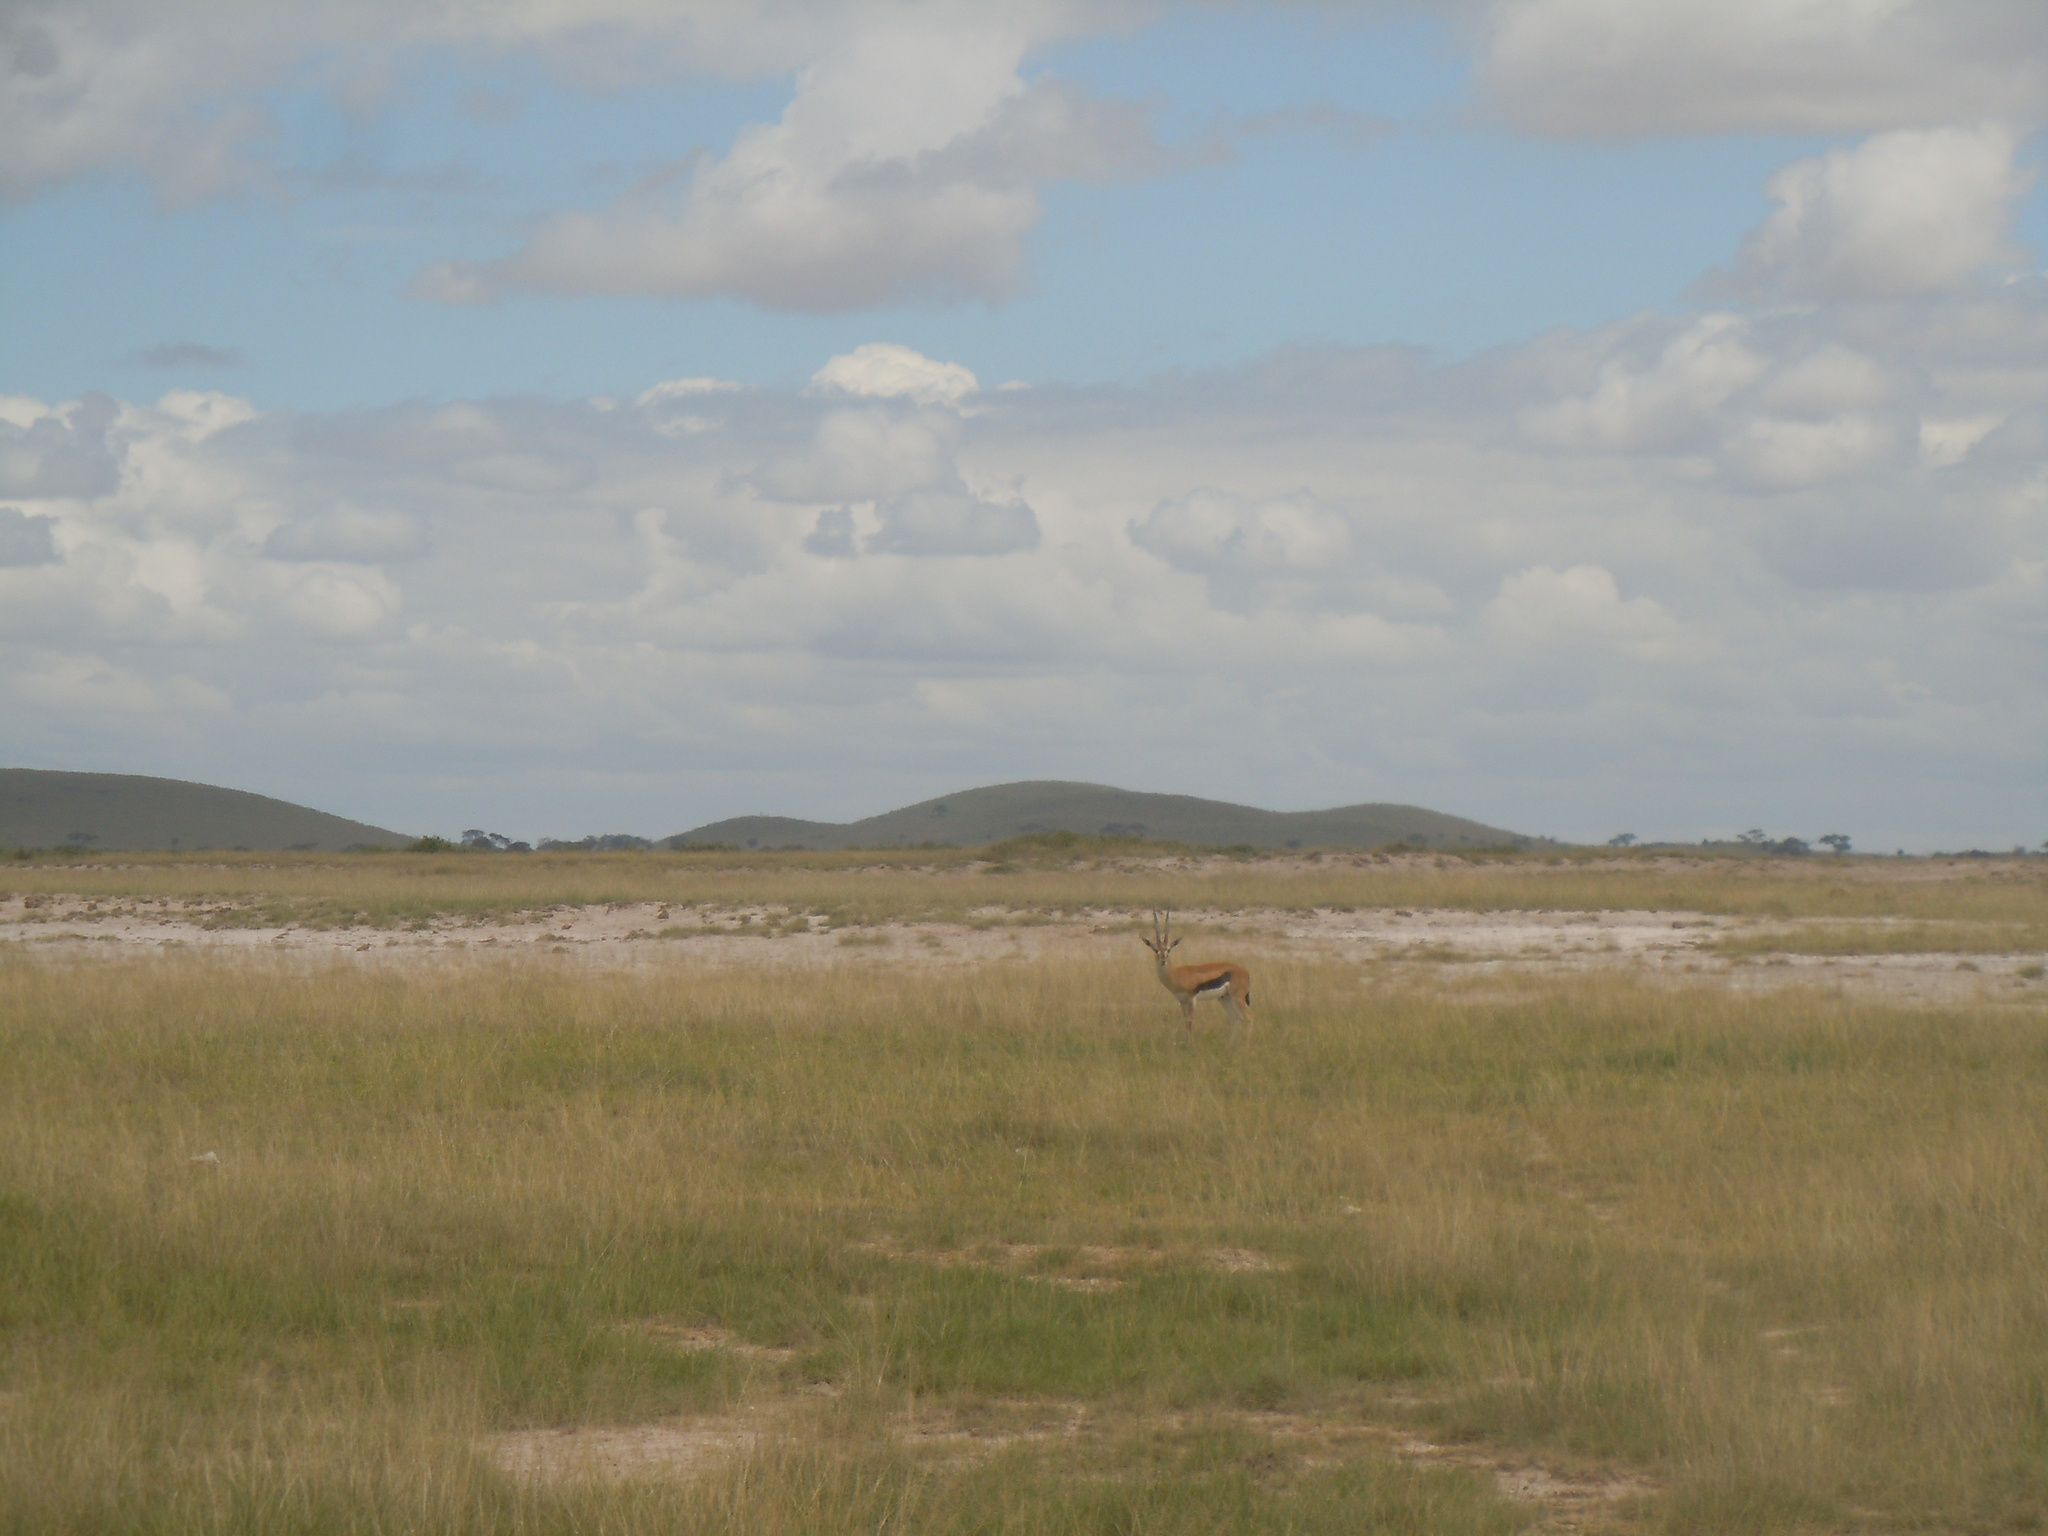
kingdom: Animalia
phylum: Chordata
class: Mammalia
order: Artiodactyla
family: Bovidae
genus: Eudorcas
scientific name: Eudorcas thomsonii
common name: Thomson's gazelle
